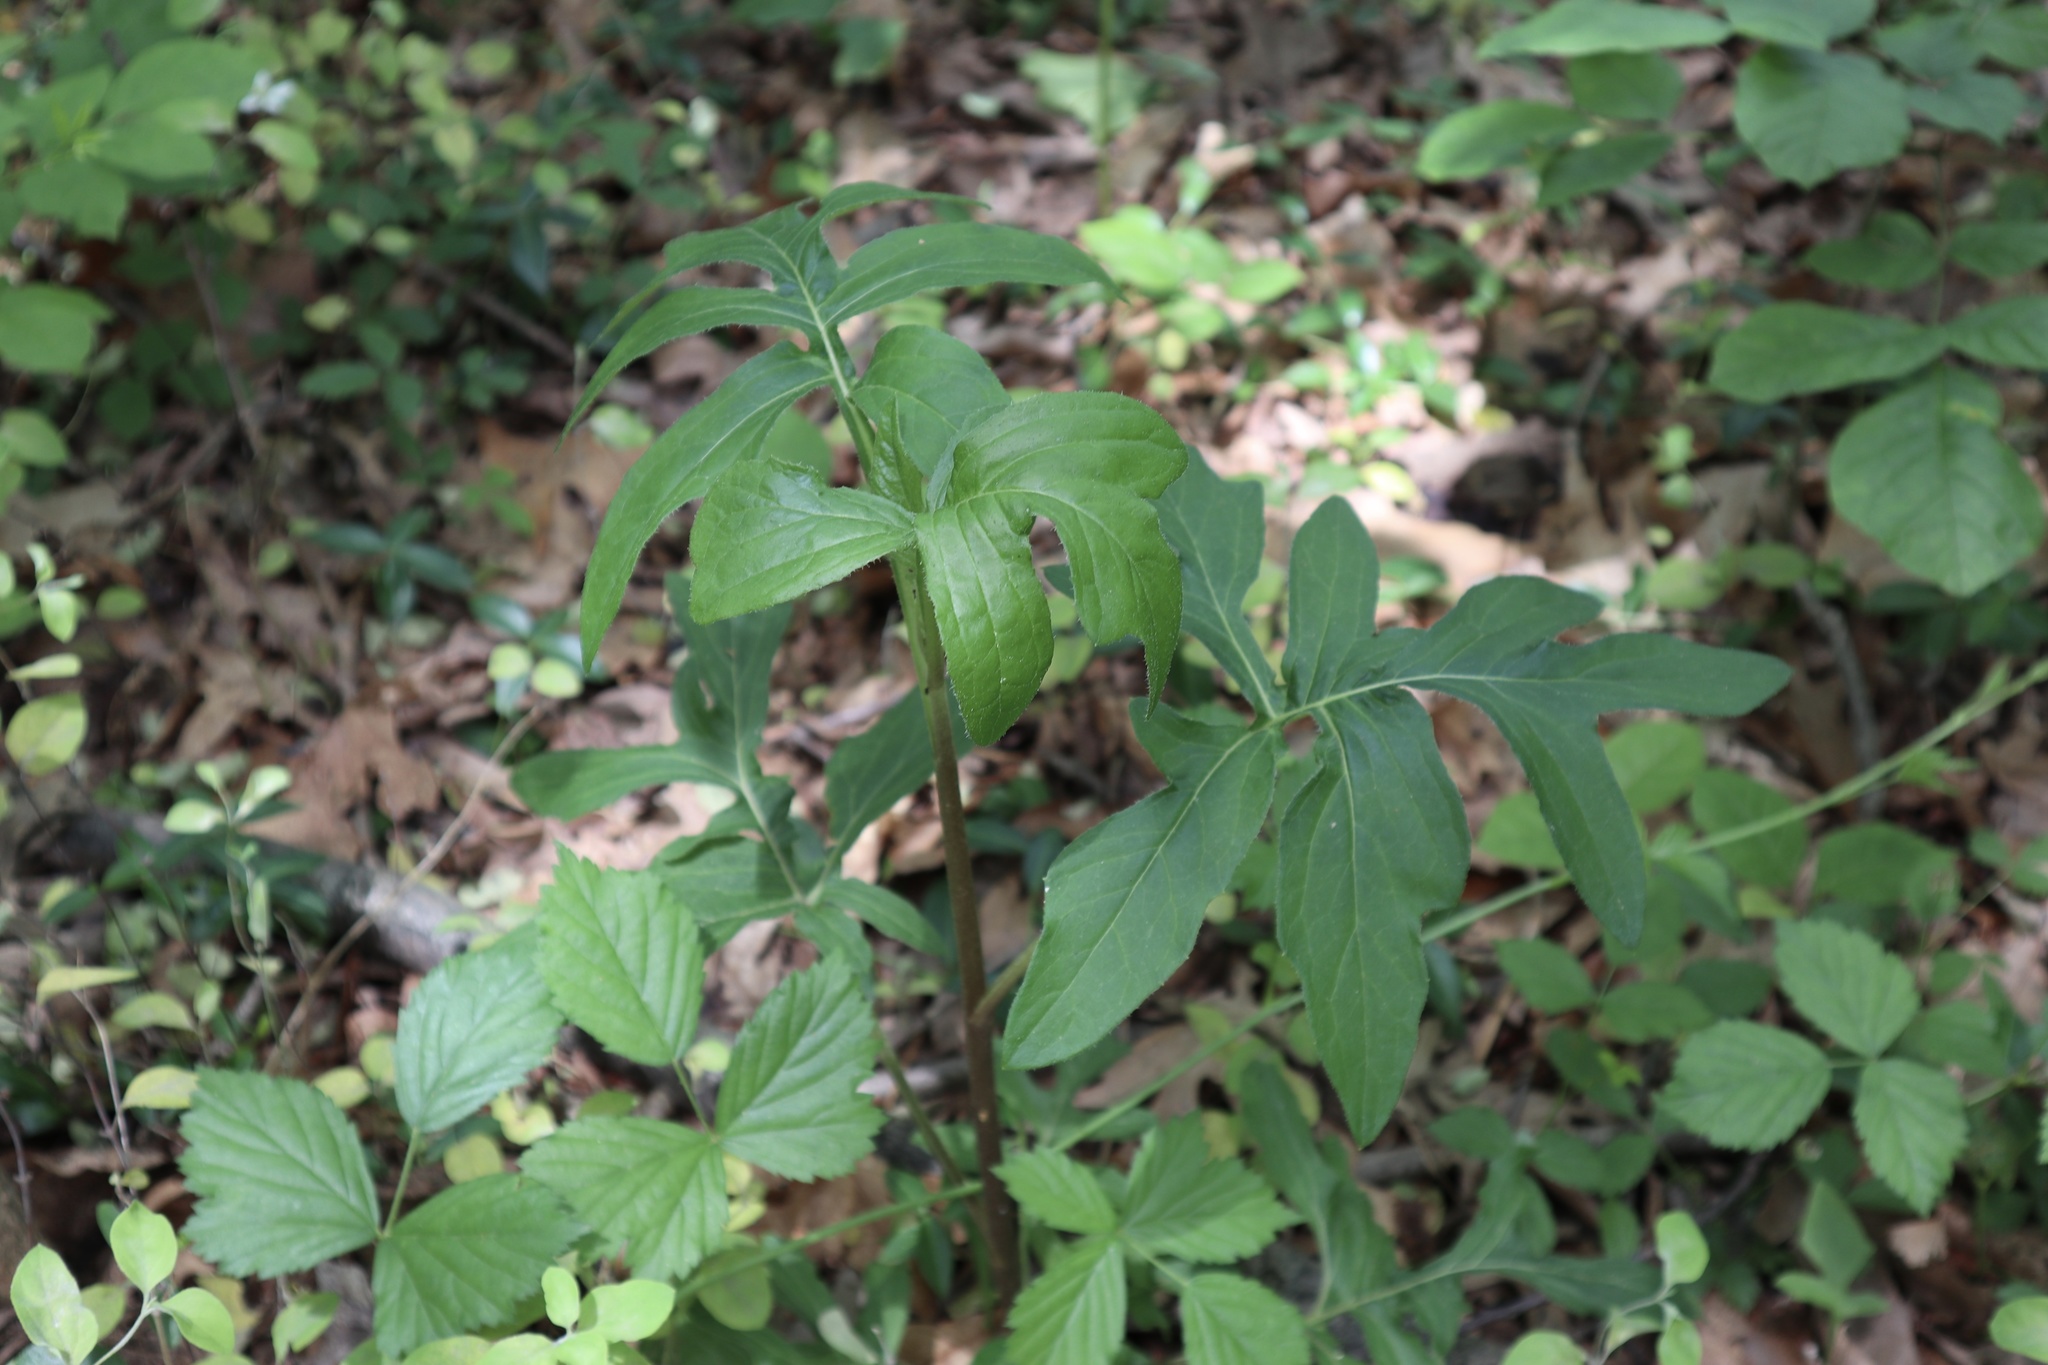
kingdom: Plantae
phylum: Tracheophyta
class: Magnoliopsida
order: Asterales
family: Asteraceae
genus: Nabalus
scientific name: Nabalus serpentarius
